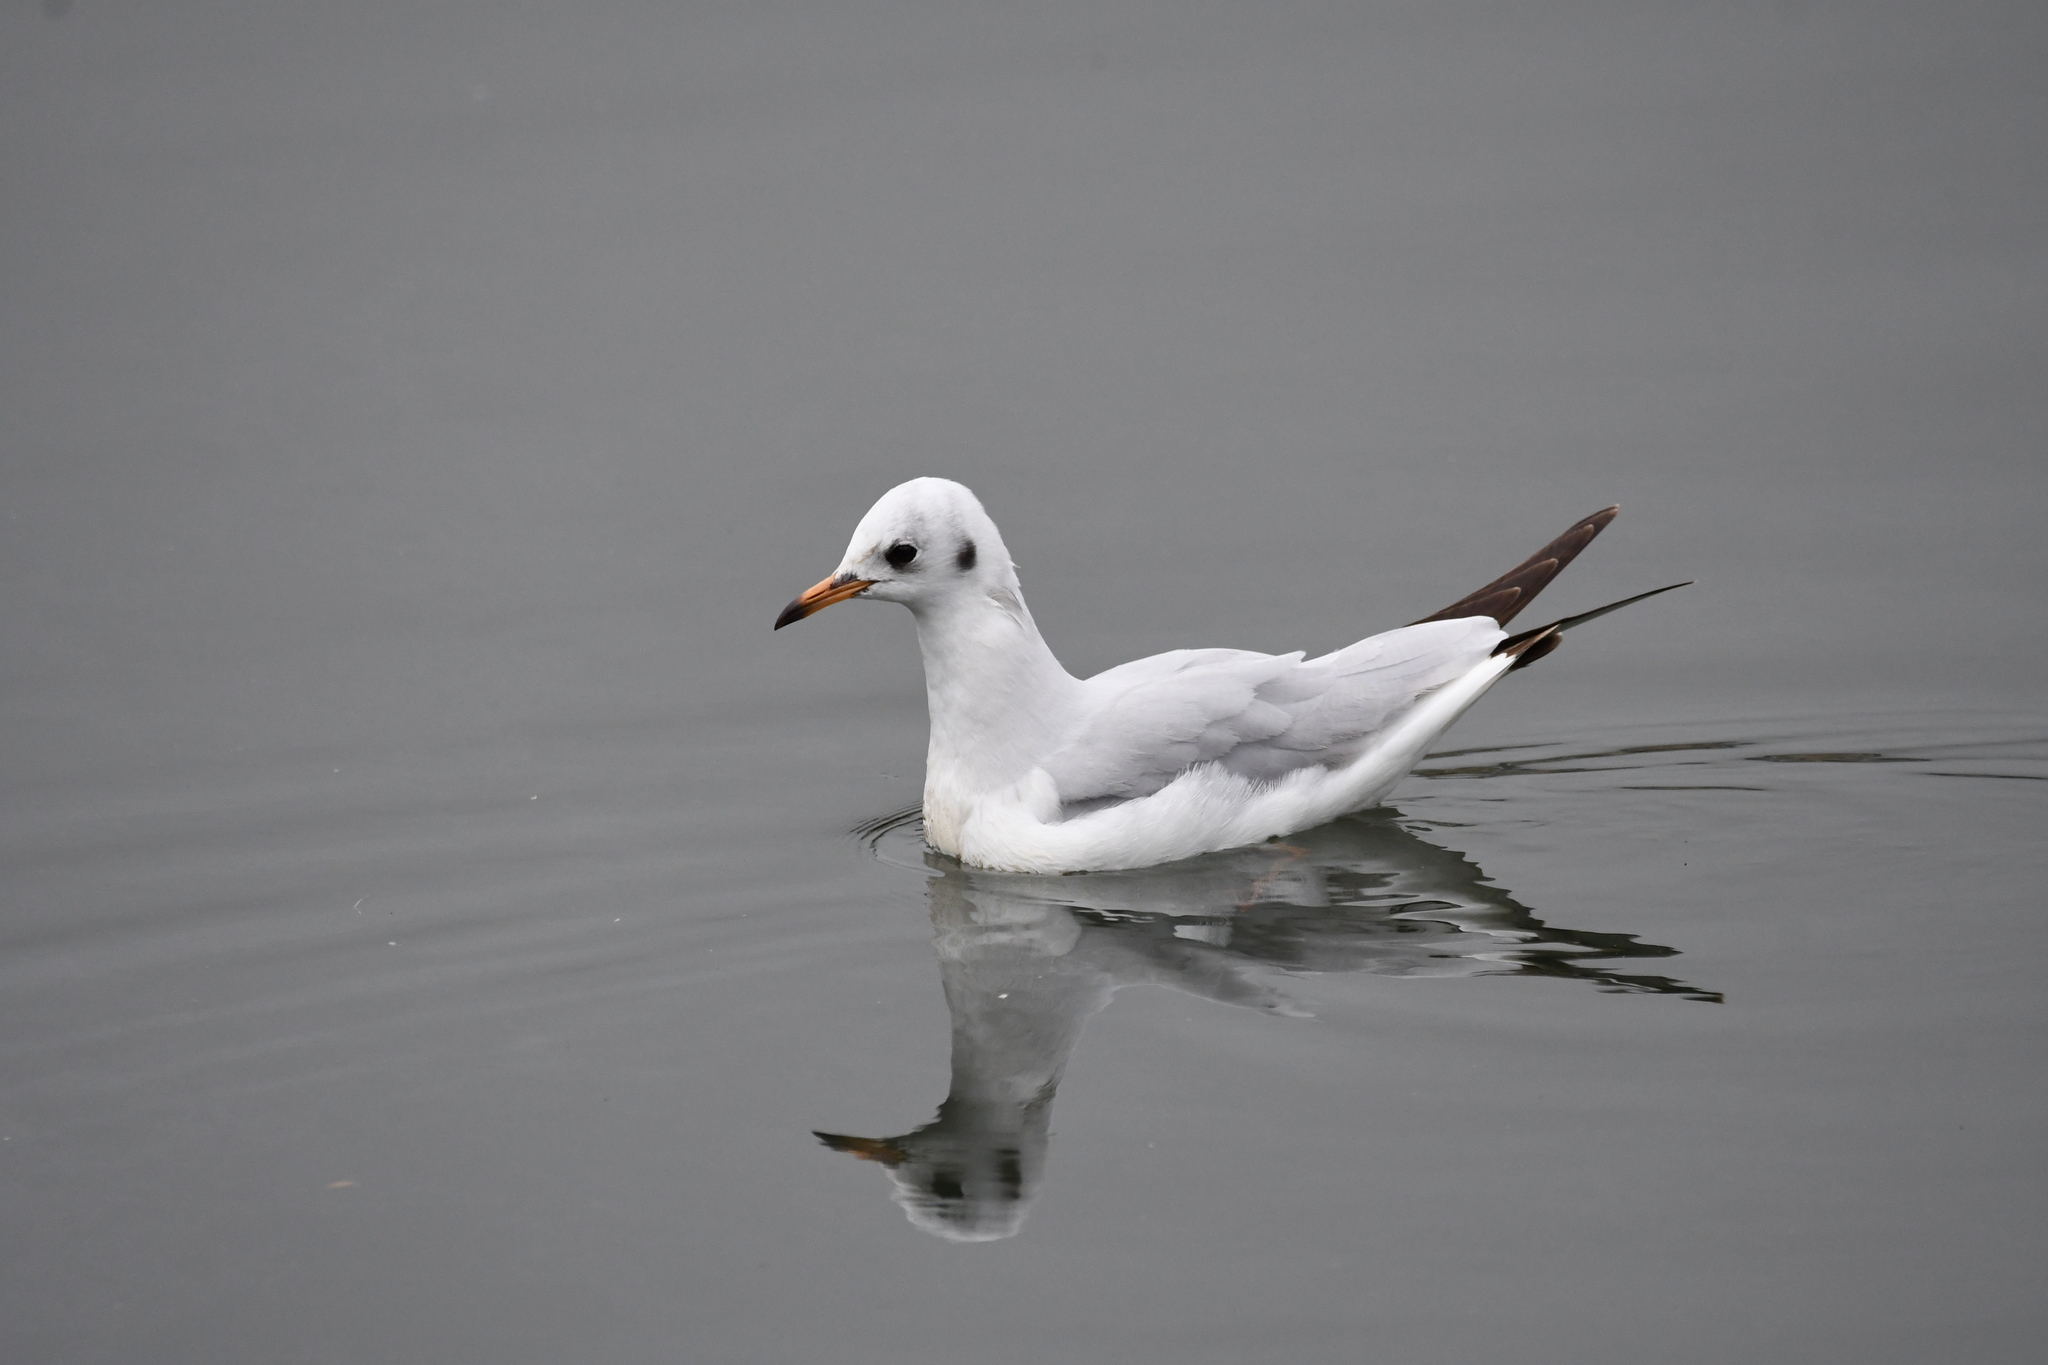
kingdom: Animalia
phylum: Chordata
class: Aves
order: Charadriiformes
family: Laridae
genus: Chroicocephalus
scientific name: Chroicocephalus ridibundus
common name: Black-headed gull
